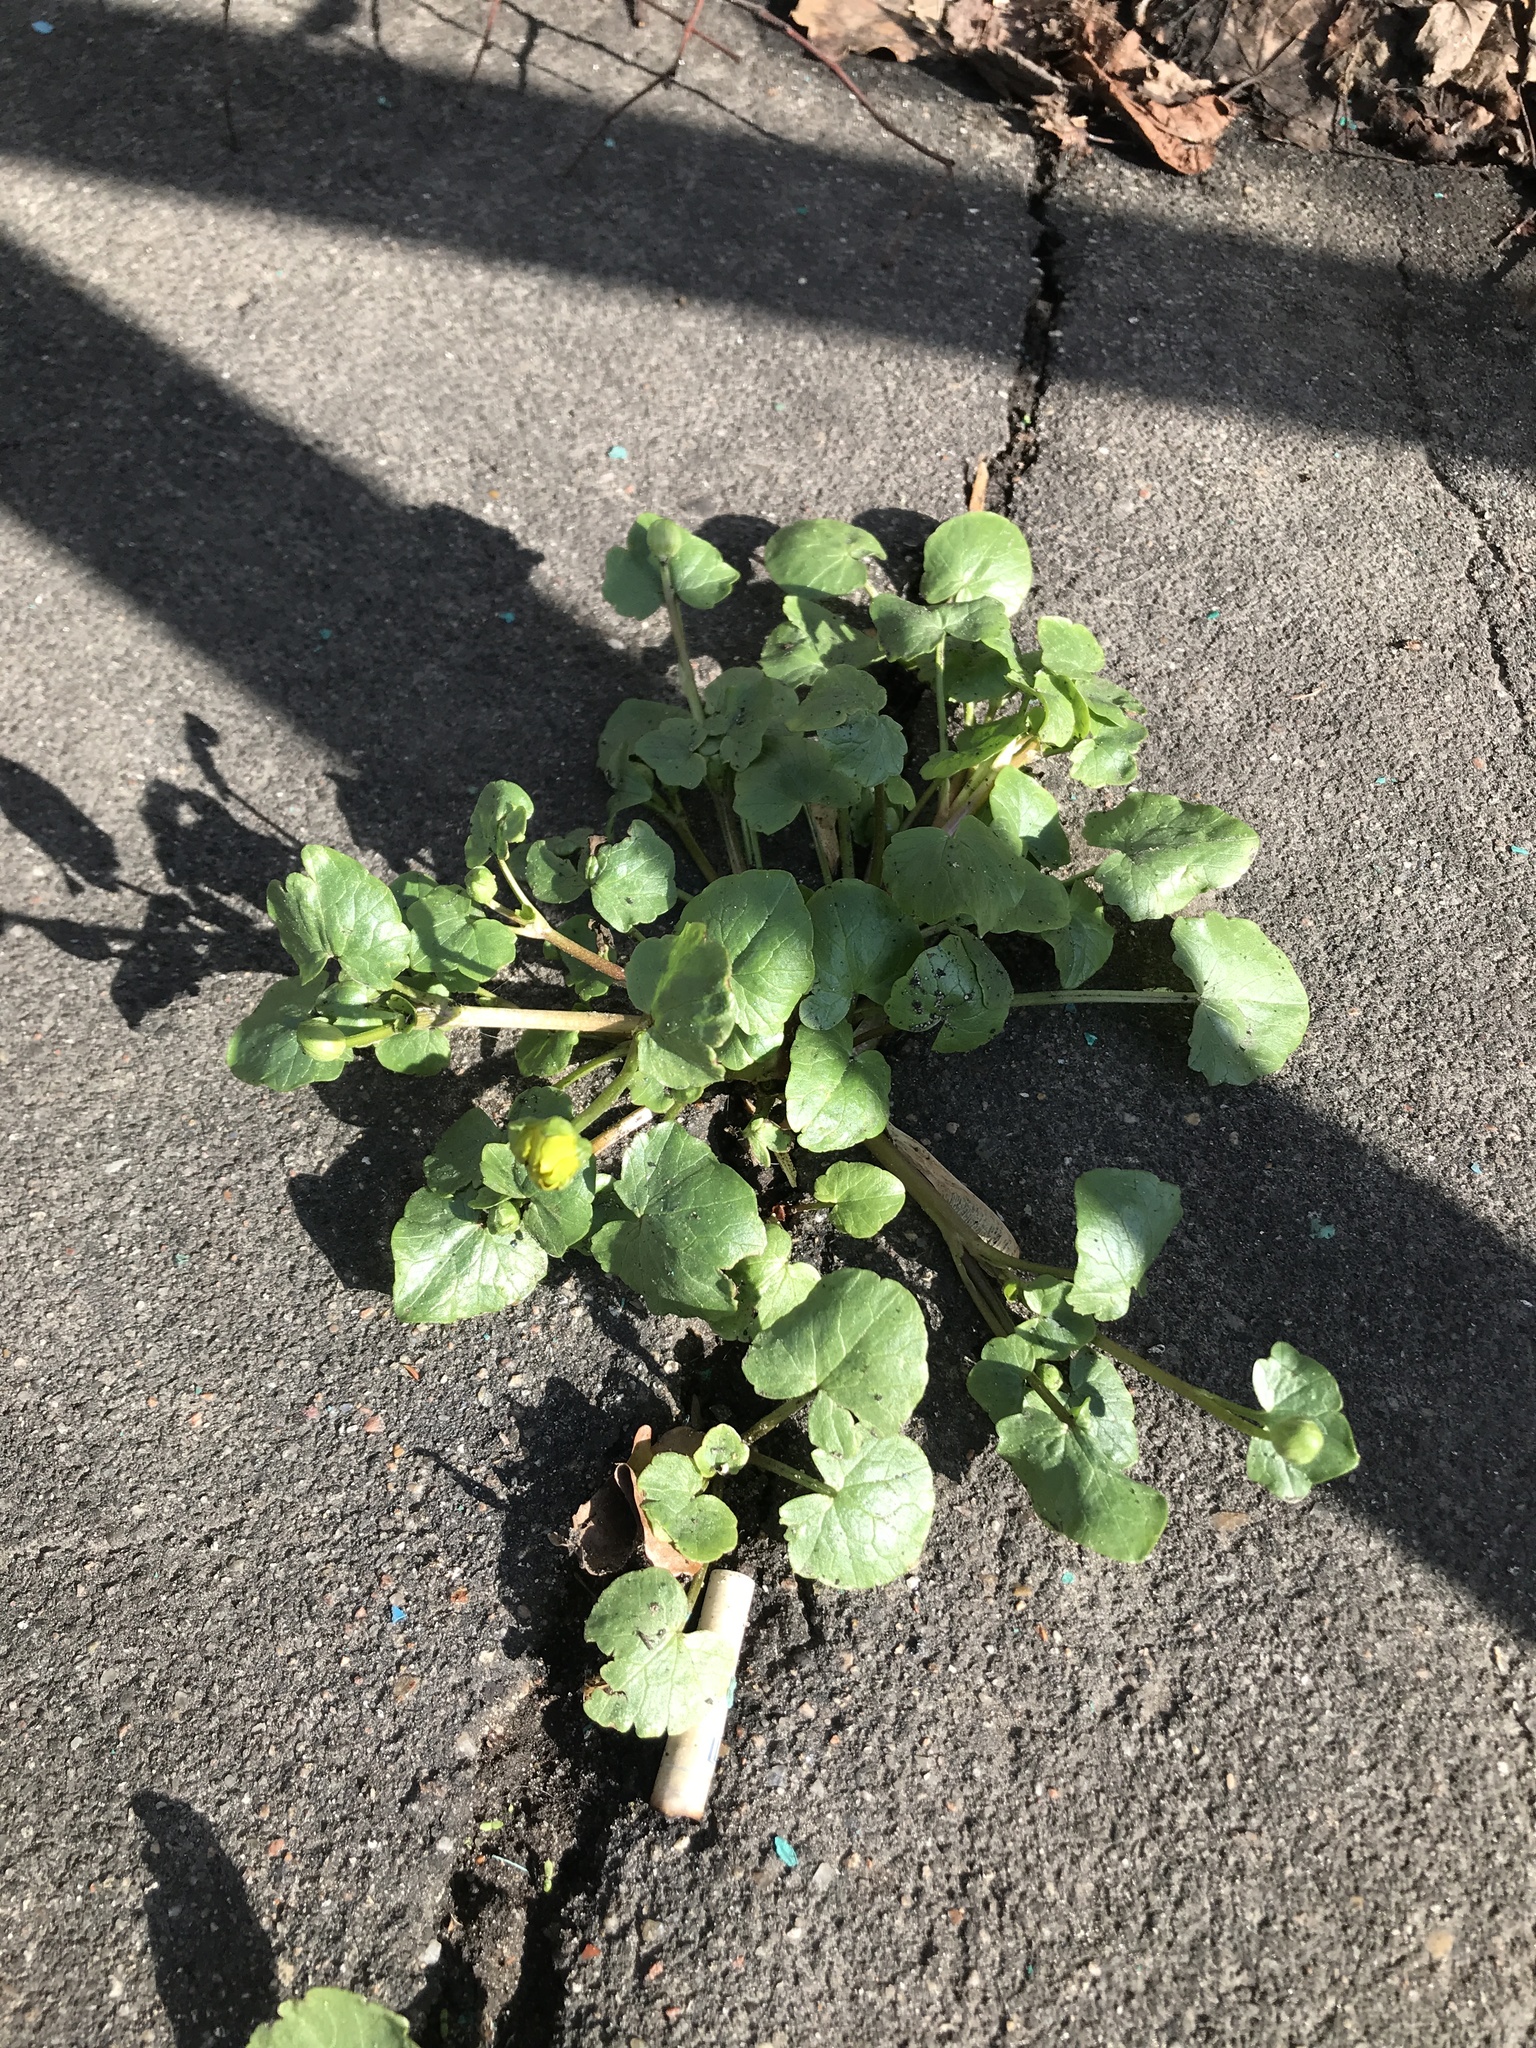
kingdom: Plantae
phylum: Tracheophyta
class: Magnoliopsida
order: Ranunculales
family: Ranunculaceae
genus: Ficaria
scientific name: Ficaria verna
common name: Lesser celandine
